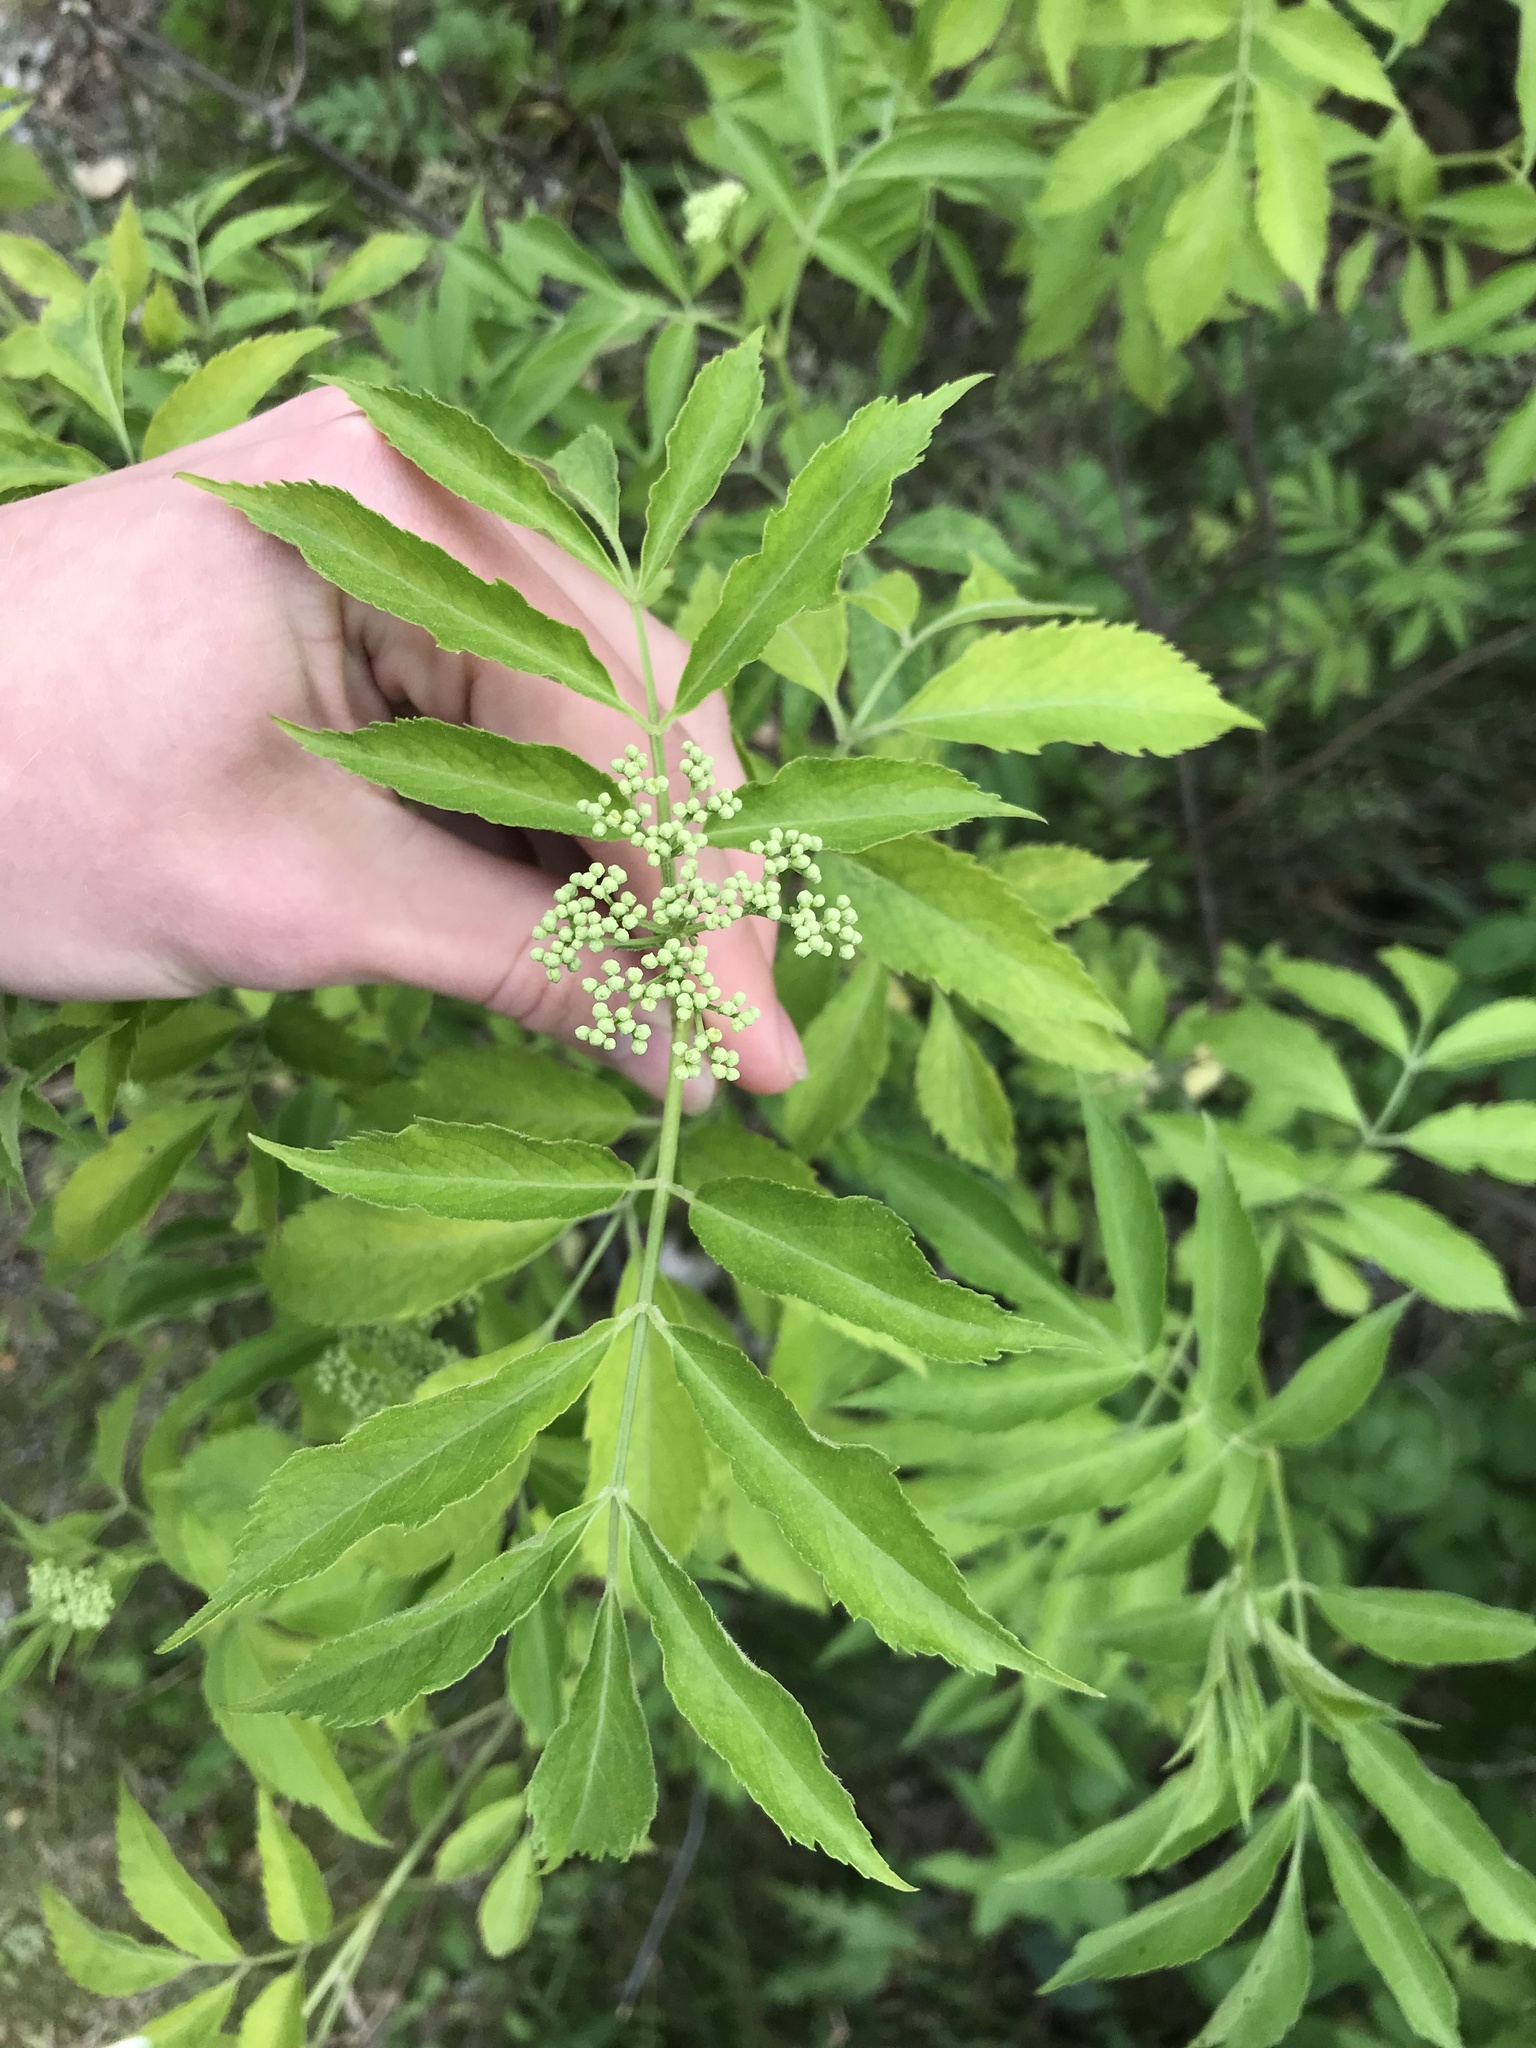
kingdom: Plantae
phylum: Tracheophyta
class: Magnoliopsida
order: Dipsacales
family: Viburnaceae
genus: Sambucus
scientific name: Sambucus canadensis
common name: American elder
